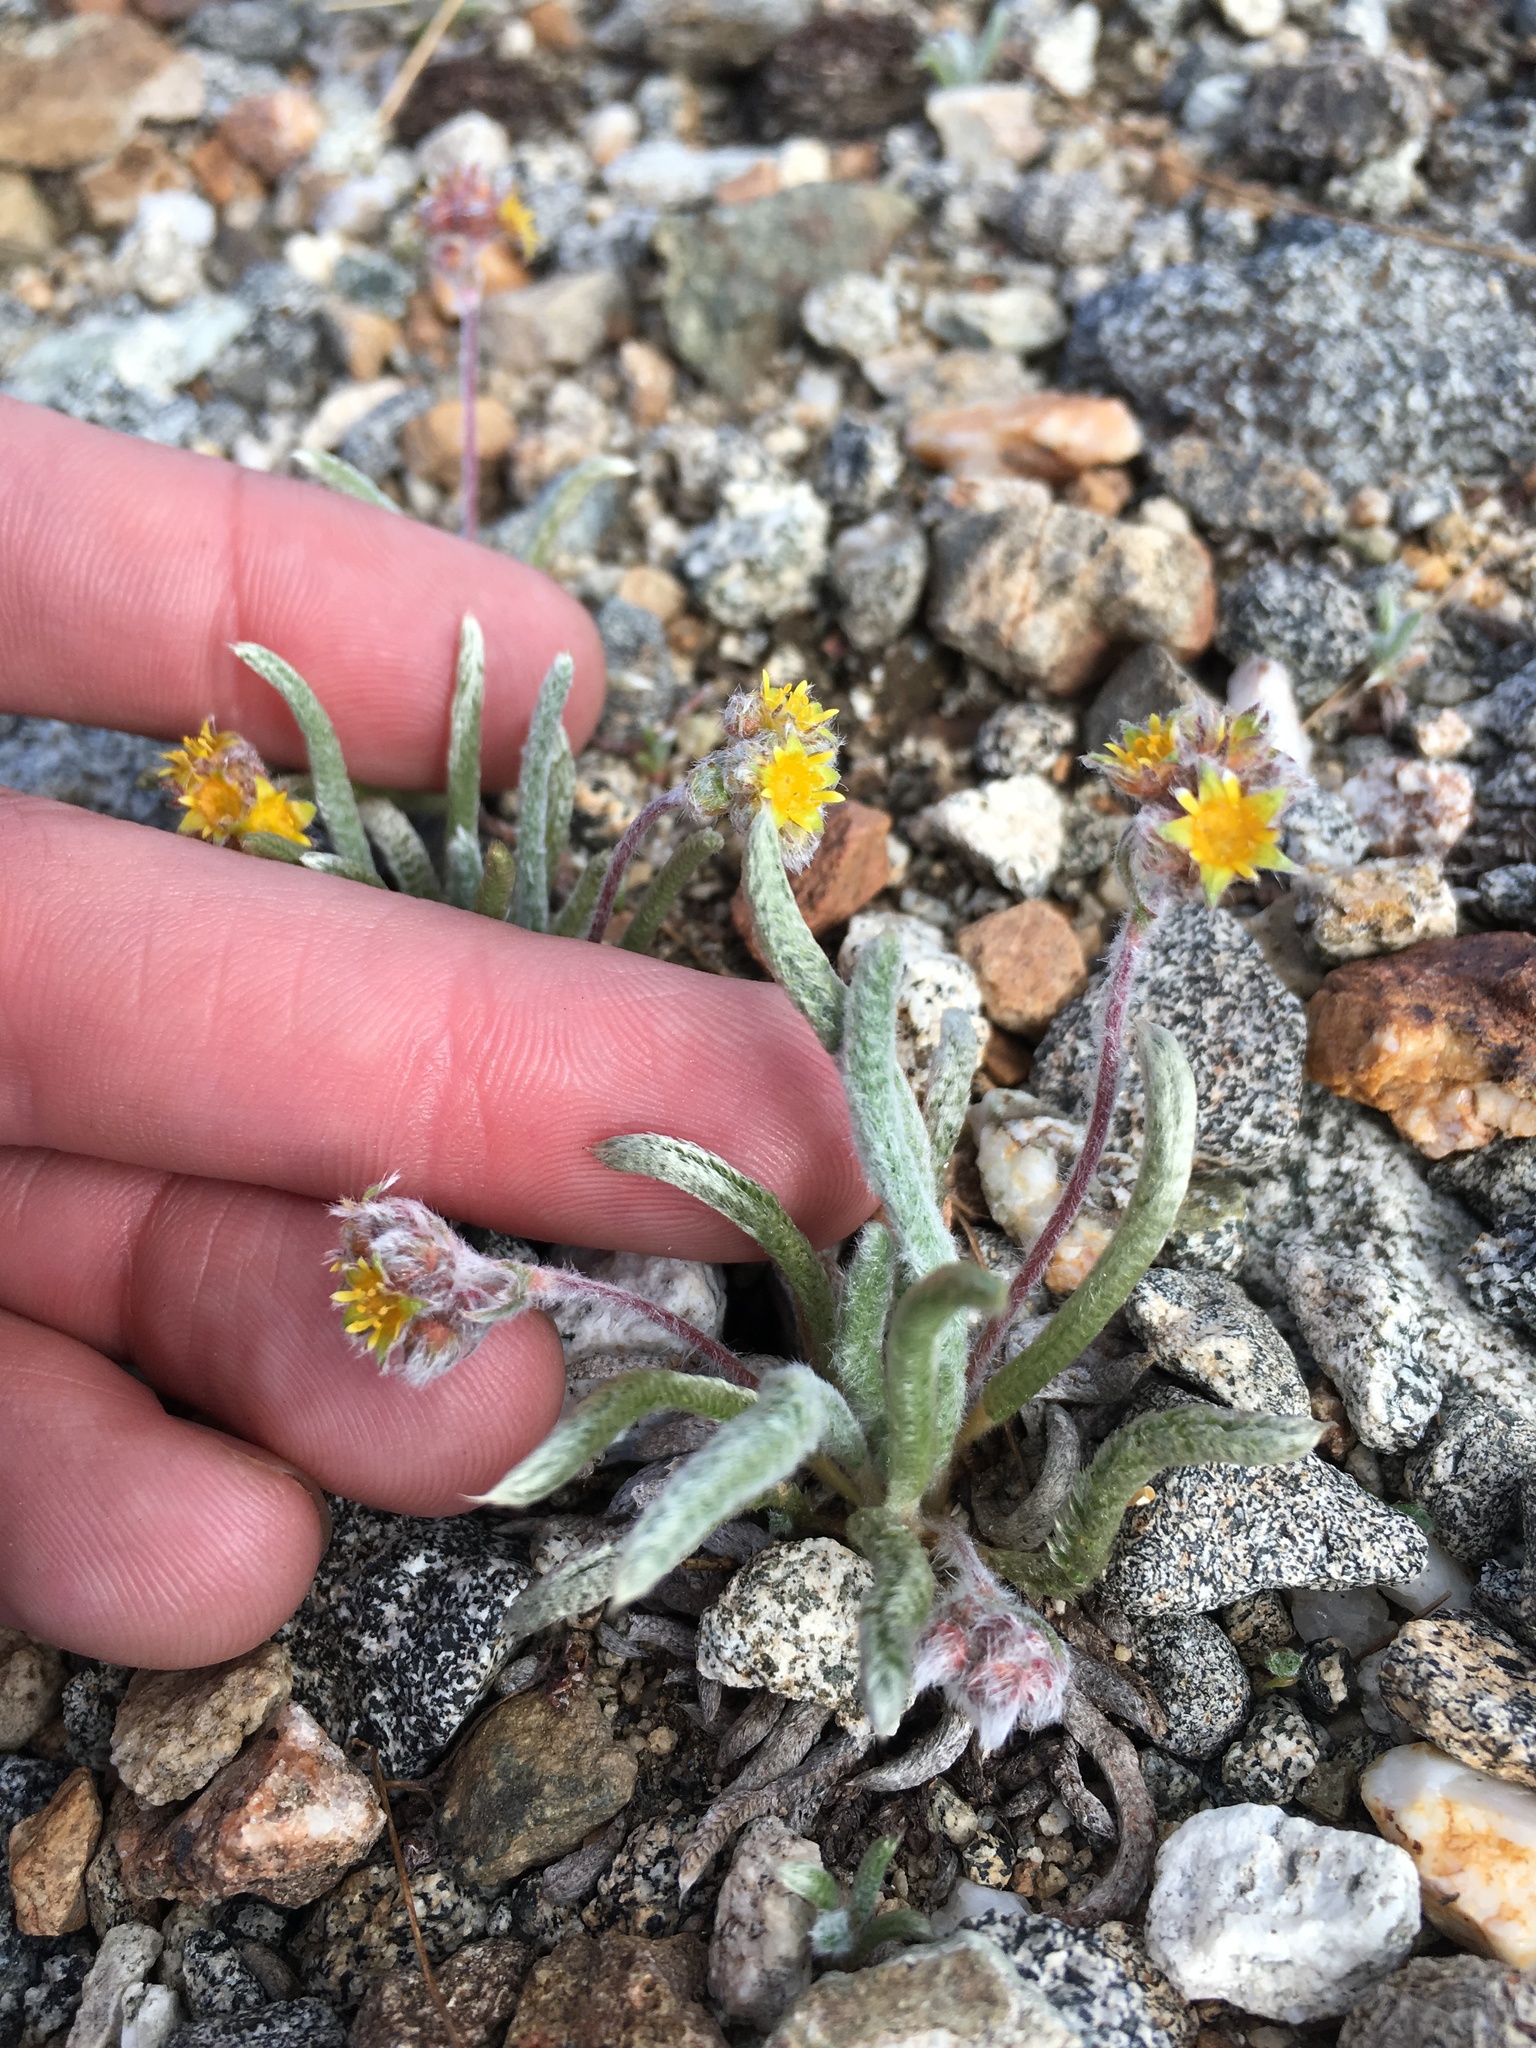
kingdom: Plantae
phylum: Tracheophyta
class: Magnoliopsida
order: Rosales
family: Rosaceae
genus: Potentilla
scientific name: Potentilla muirii
